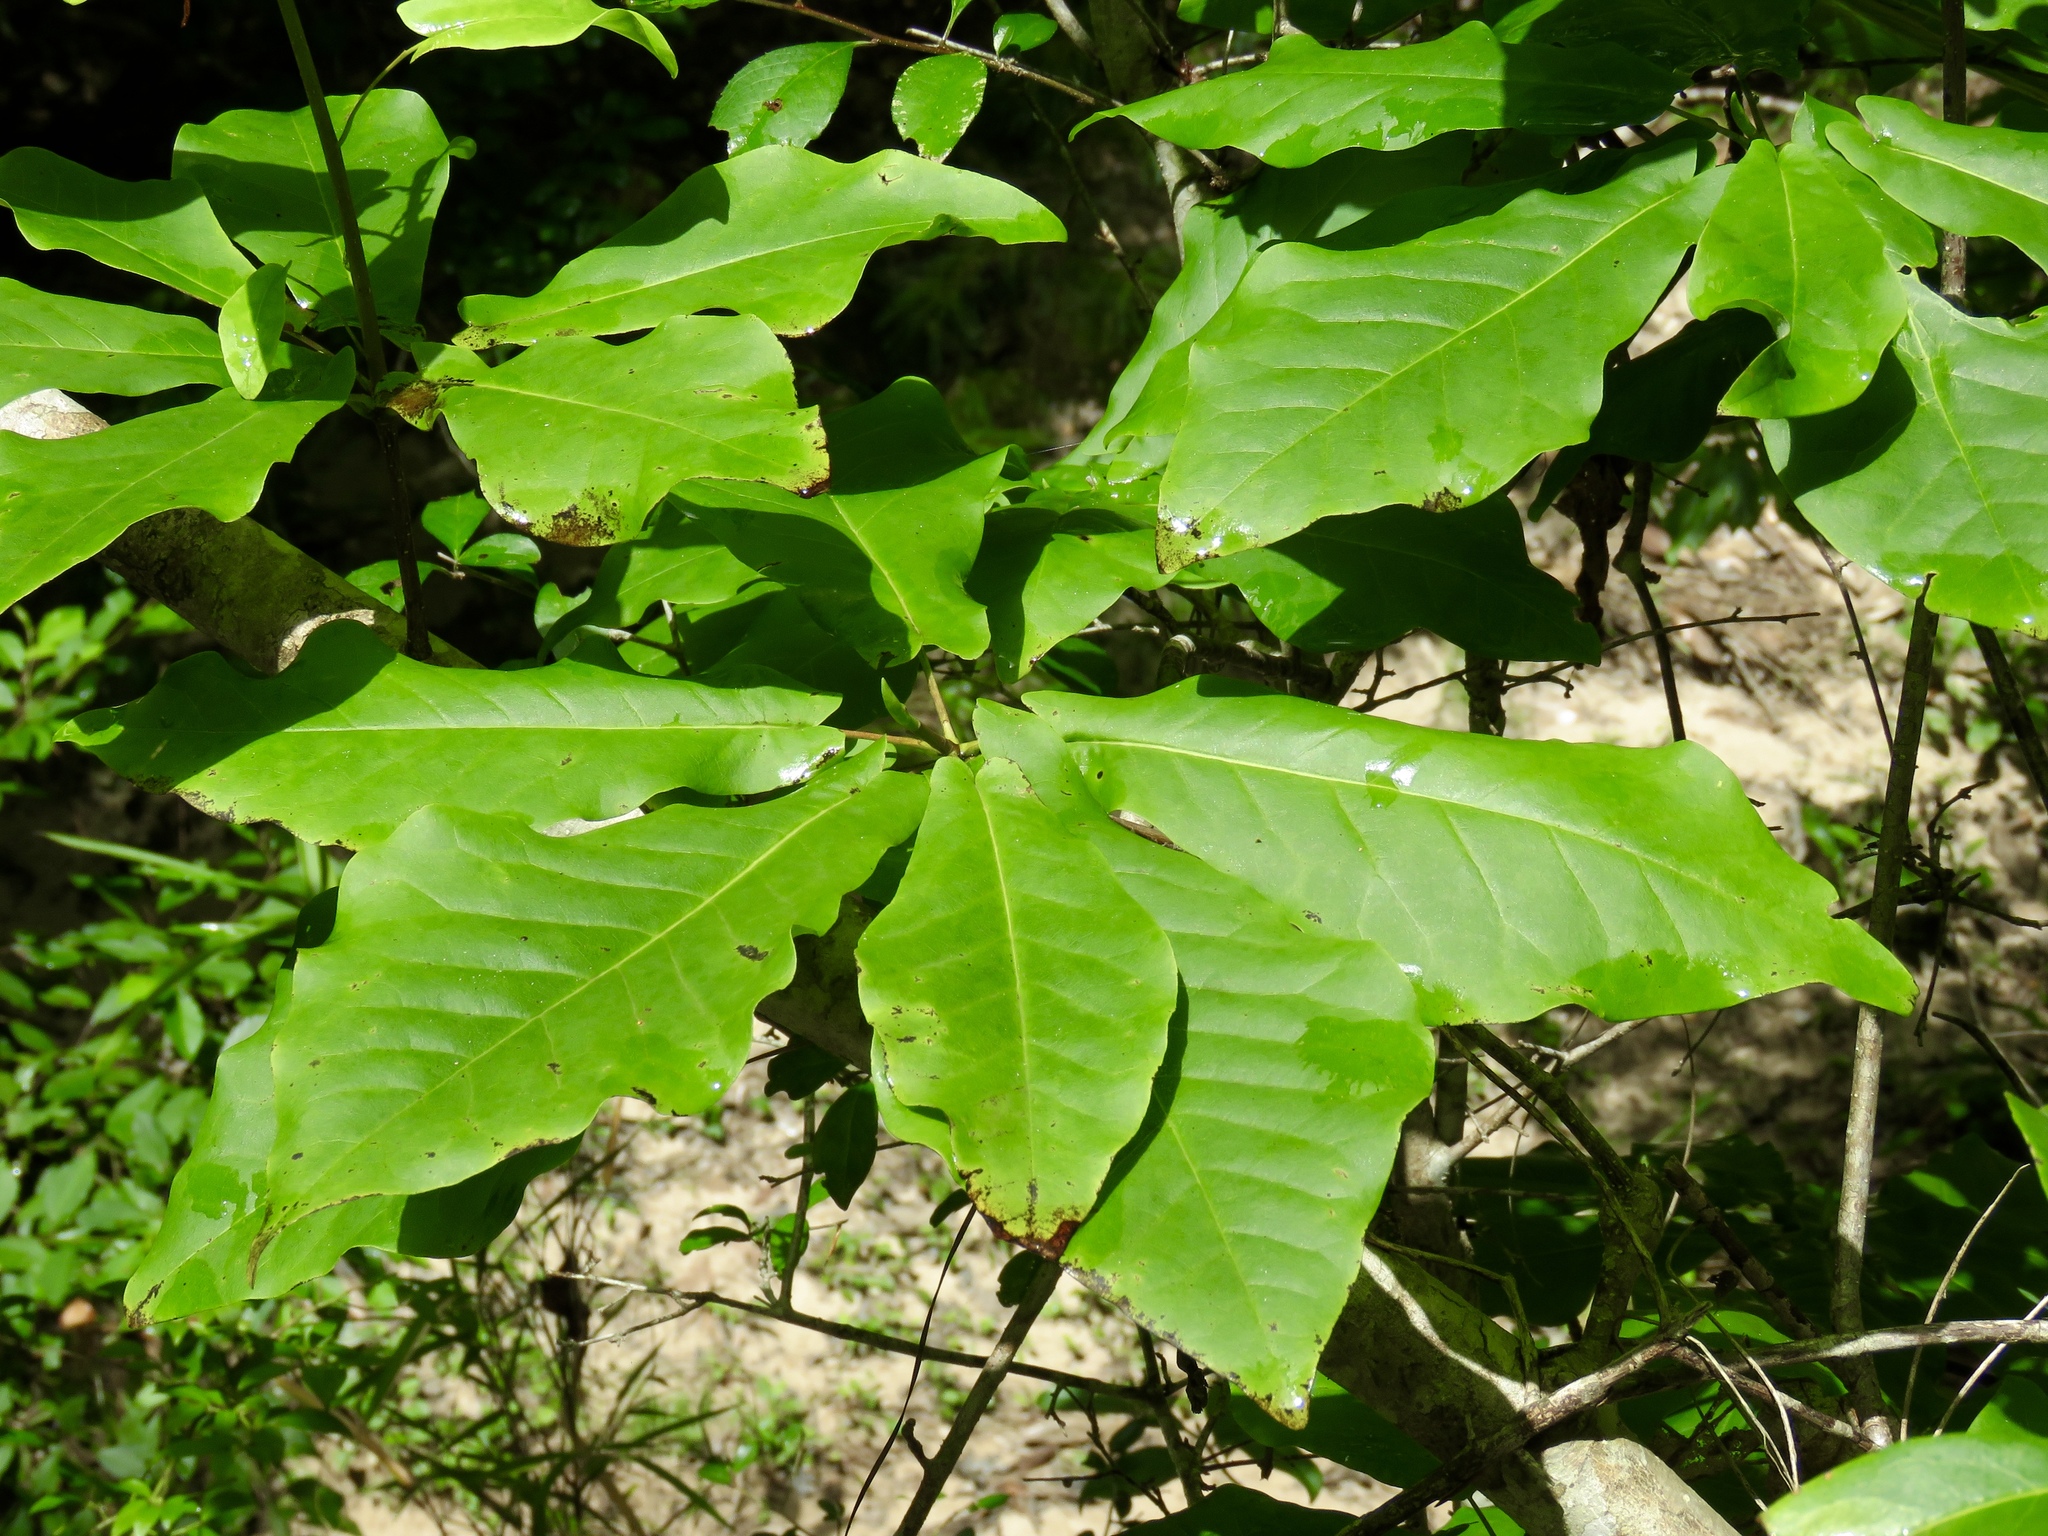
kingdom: Plantae
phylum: Tracheophyta
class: Magnoliopsida
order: Magnoliales
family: Magnoliaceae
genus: Magnolia
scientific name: Magnolia fraseri
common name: Fraser's magnolia
